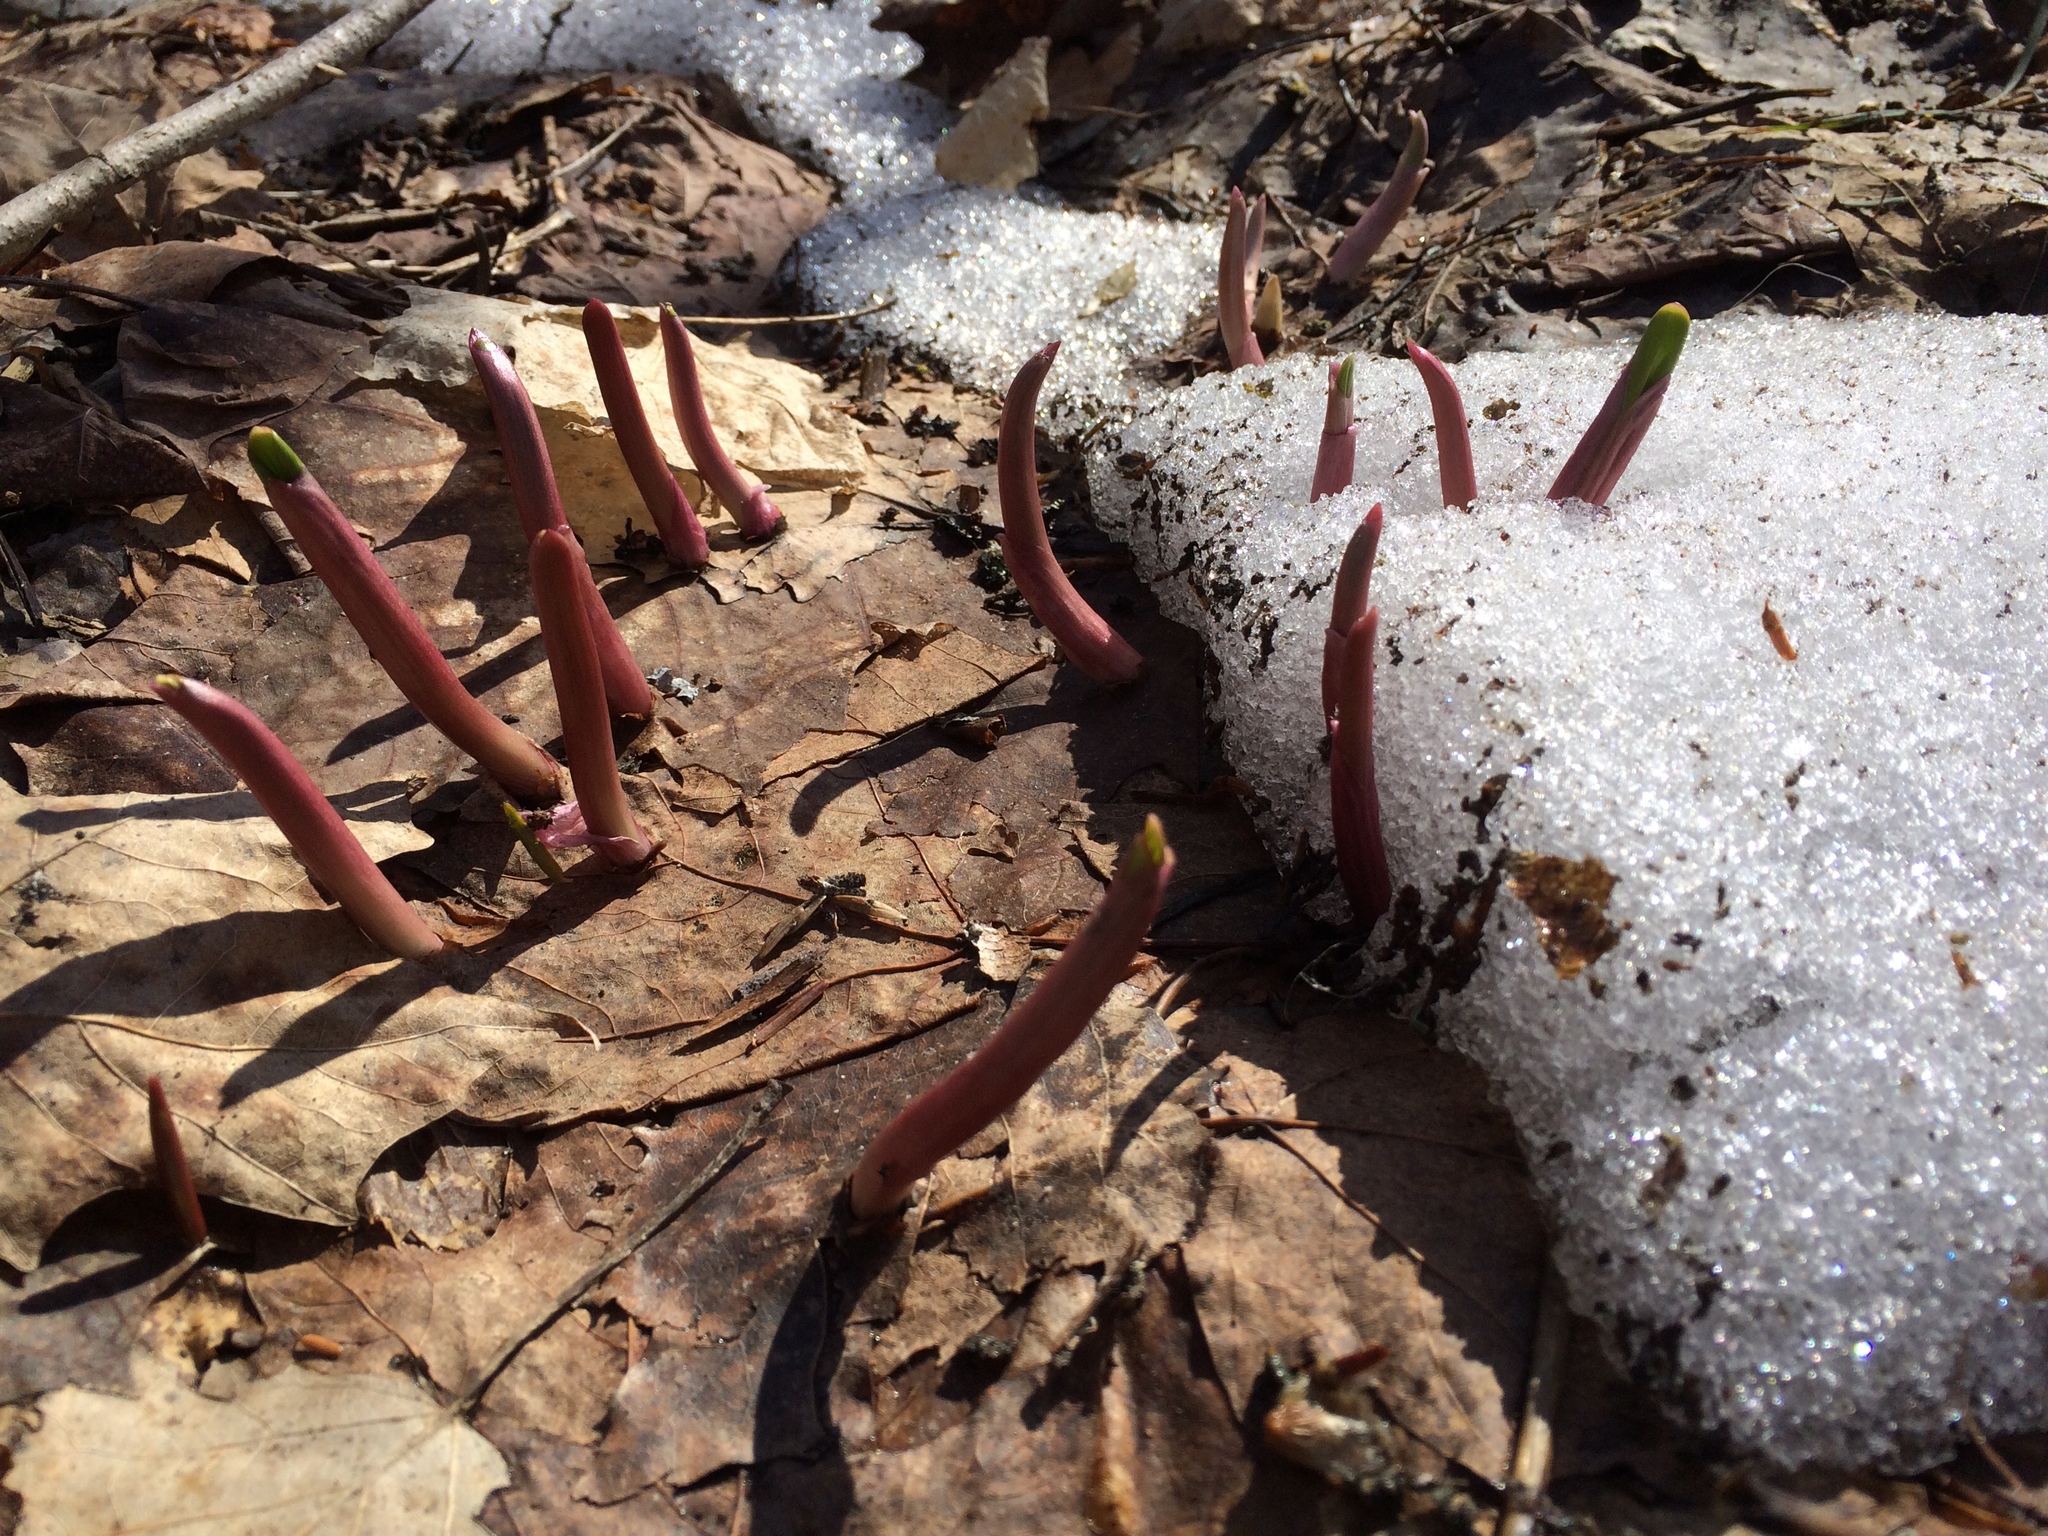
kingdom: Plantae
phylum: Tracheophyta
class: Liliopsida
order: Asparagales
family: Amaryllidaceae
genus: Allium
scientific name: Allium tricoccum
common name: Ramp
